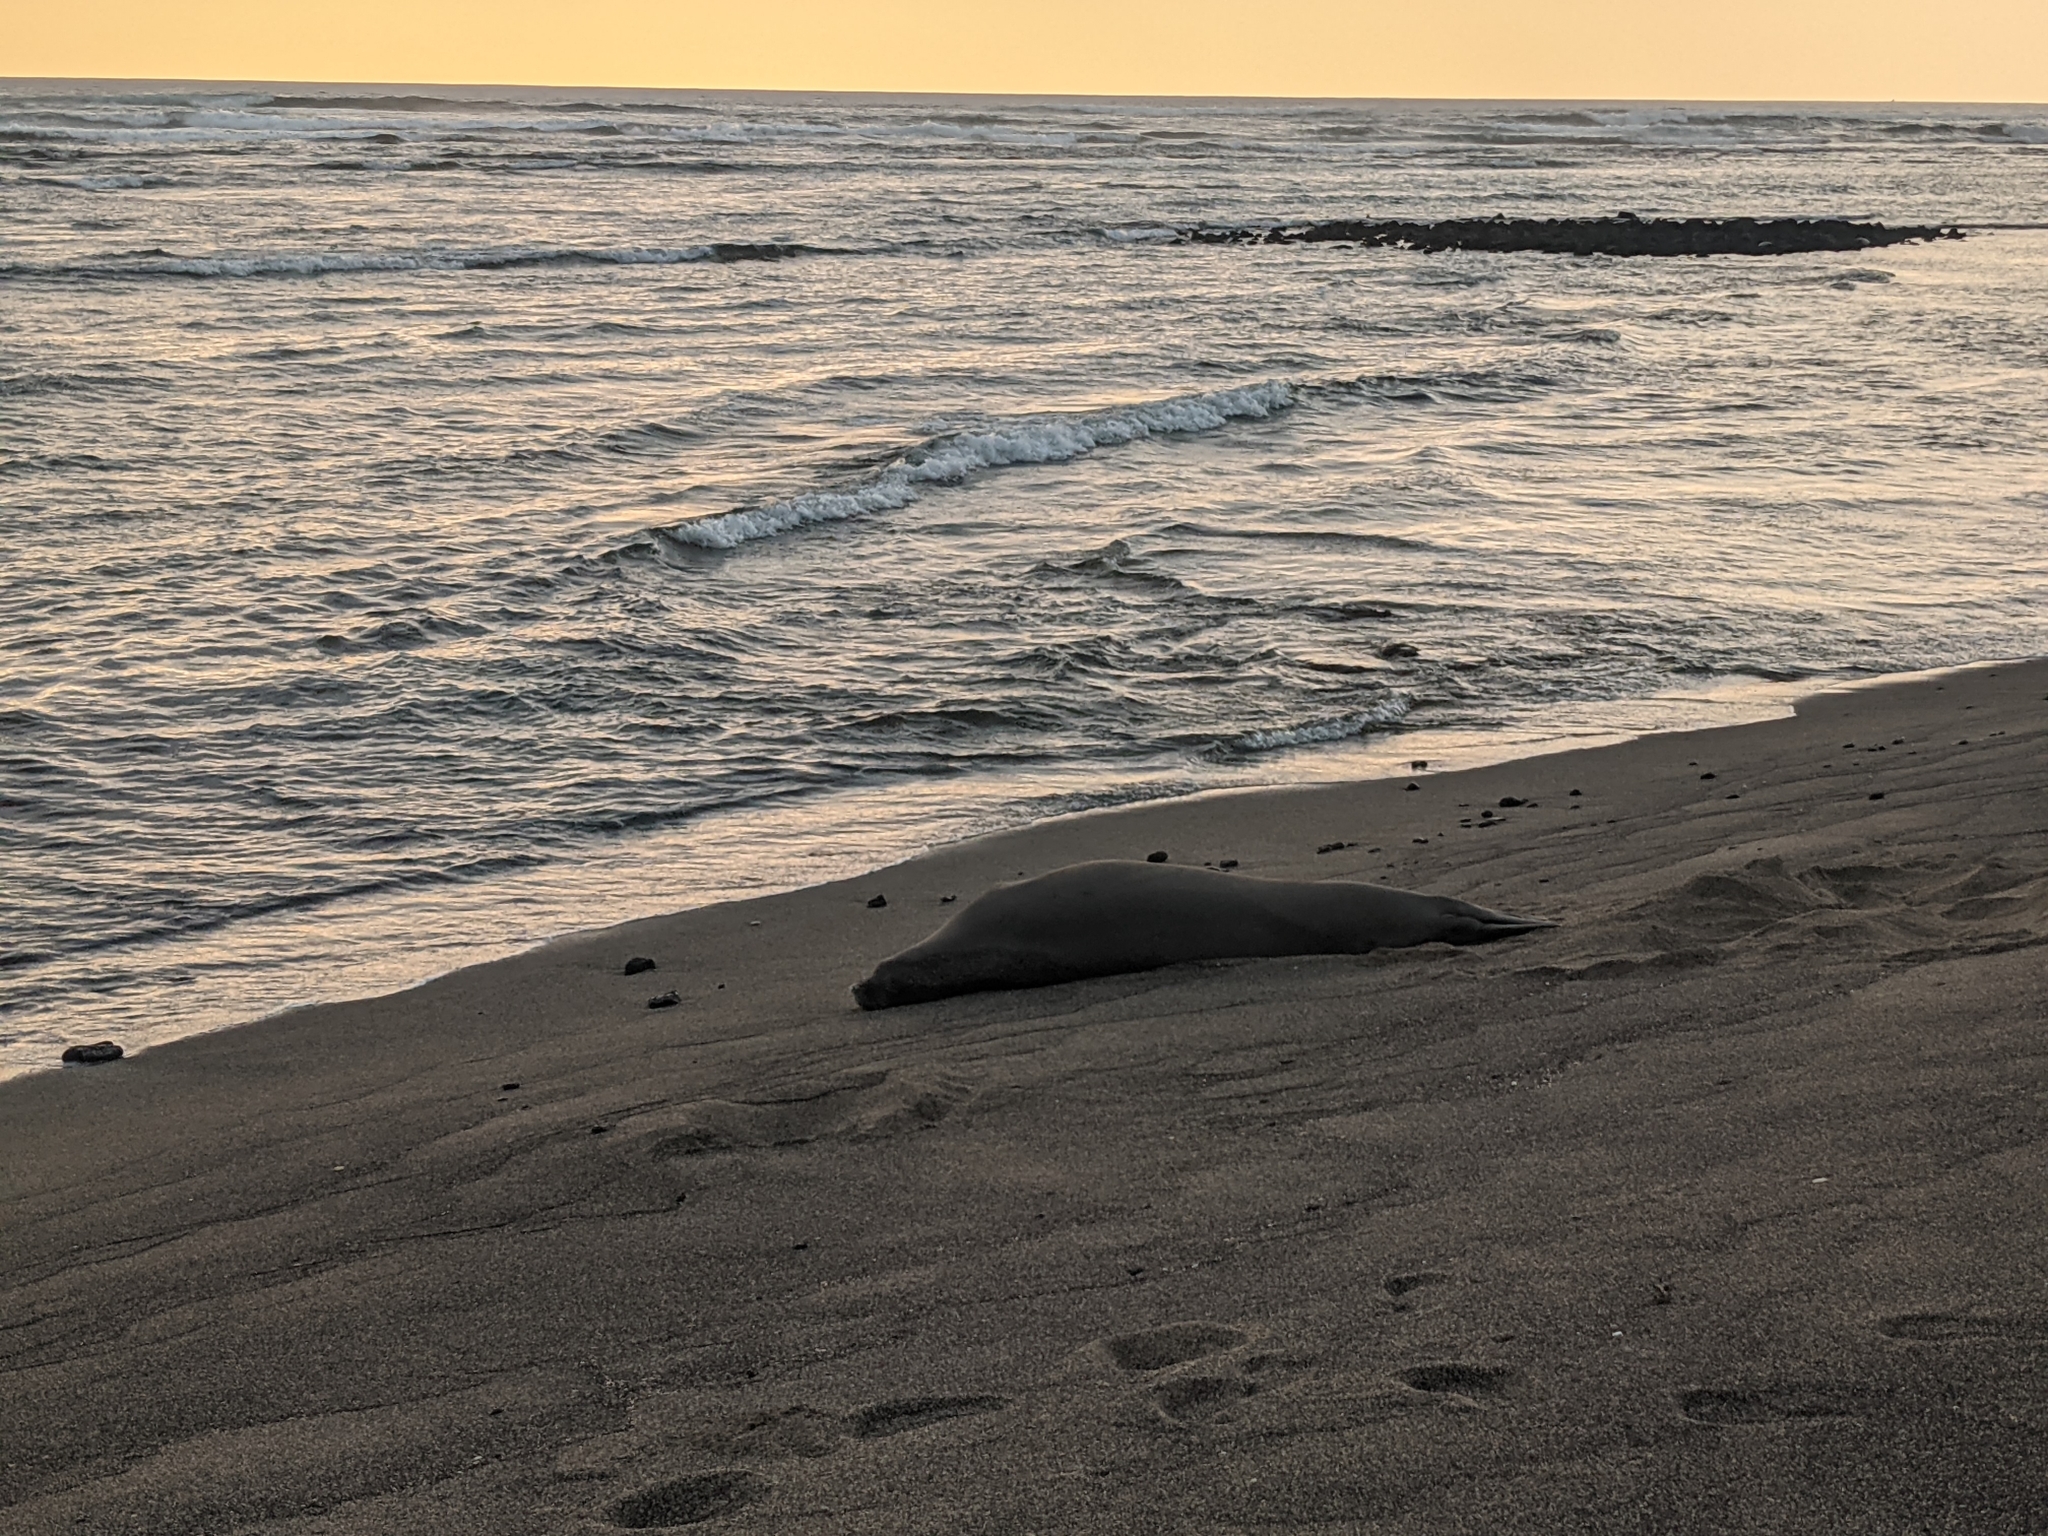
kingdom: Animalia
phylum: Chordata
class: Mammalia
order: Carnivora
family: Phocidae
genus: Neomonachus
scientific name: Neomonachus schauinslandi
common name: Hawaiian monk seal
